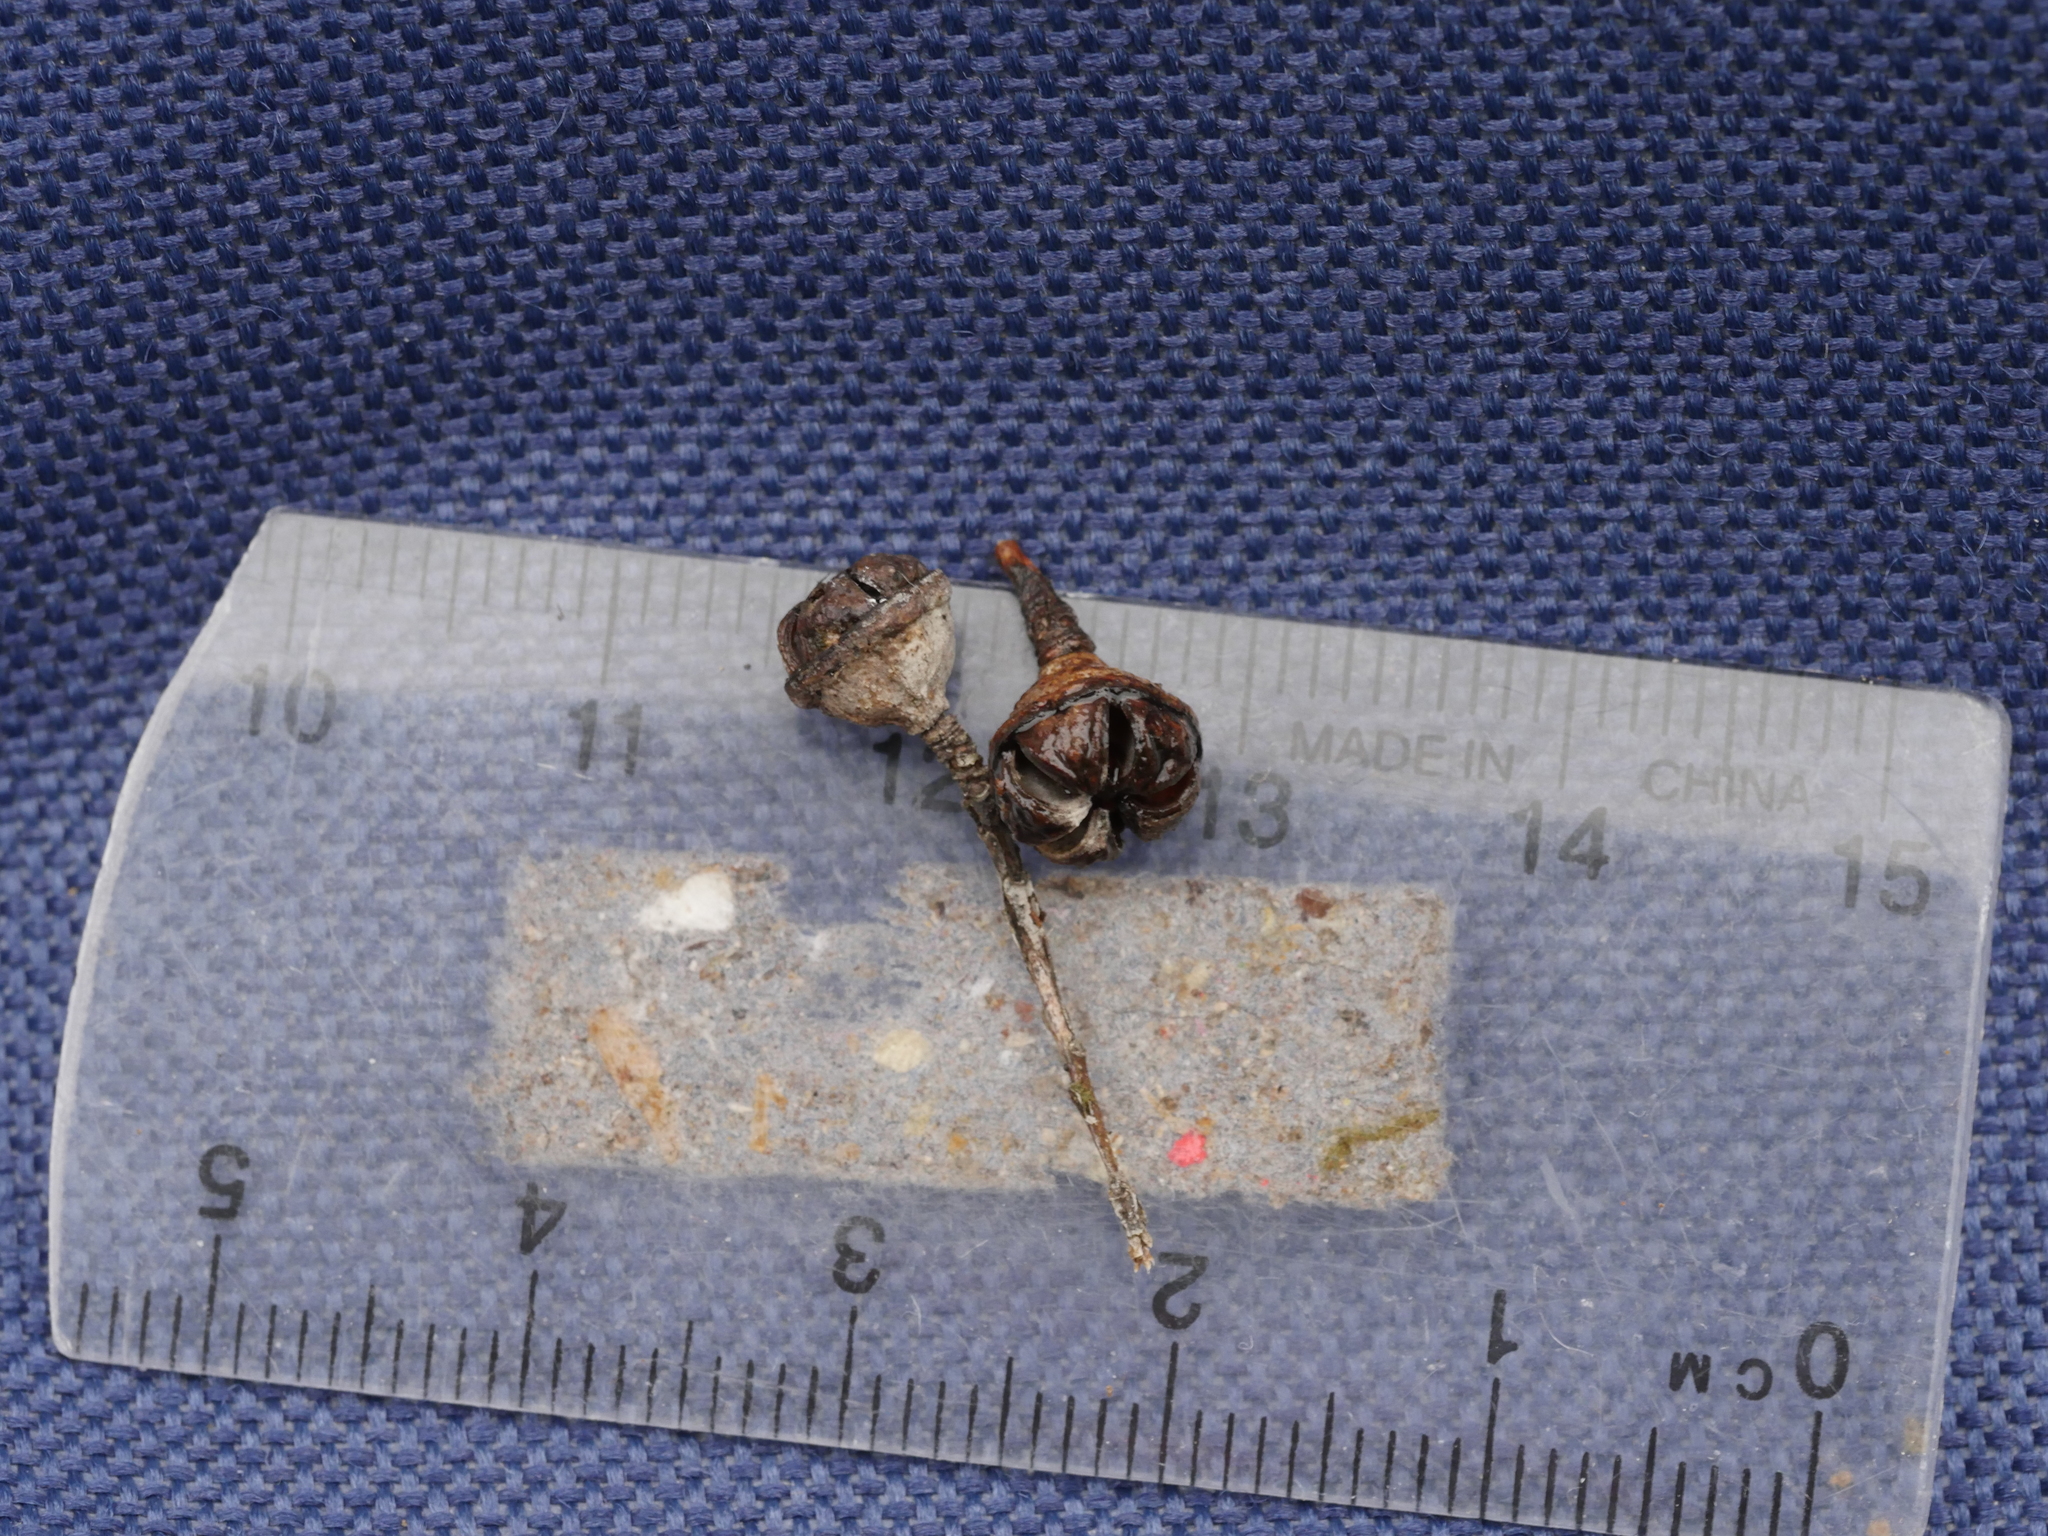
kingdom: Plantae
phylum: Tracheophyta
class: Magnoliopsida
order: Myrtales
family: Myrtaceae
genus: Leptospermum
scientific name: Leptospermum scoparium
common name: Broom tea-tree
